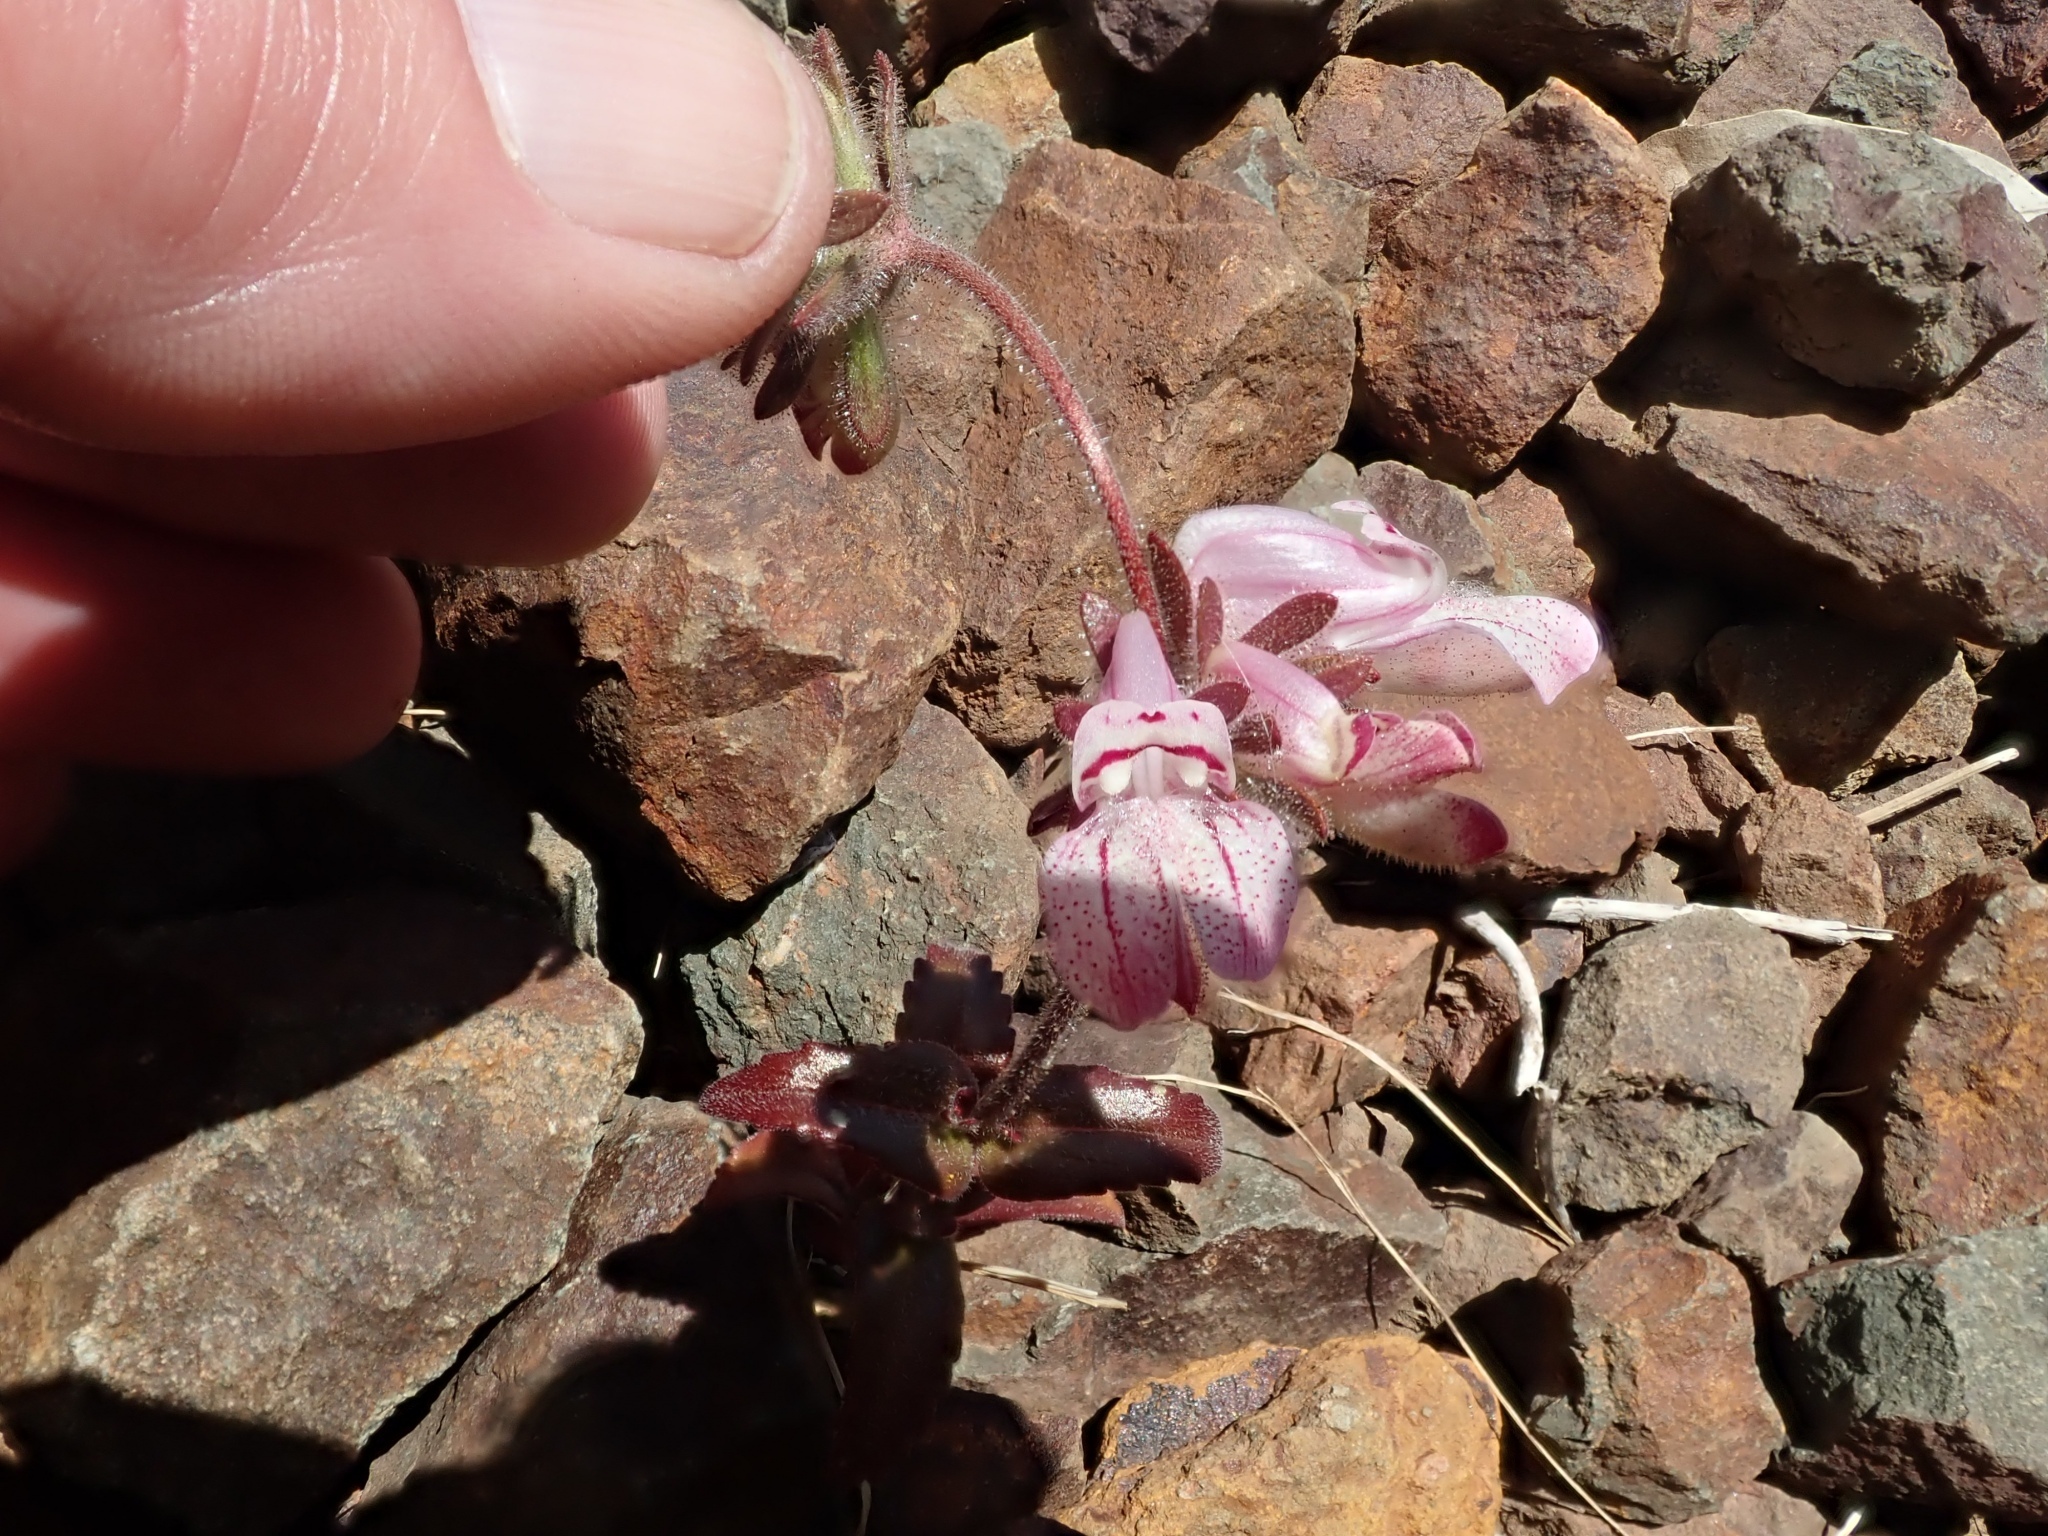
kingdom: Plantae
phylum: Tracheophyta
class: Magnoliopsida
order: Lamiales
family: Plantaginaceae
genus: Collinsia
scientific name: Collinsia tinctoria
